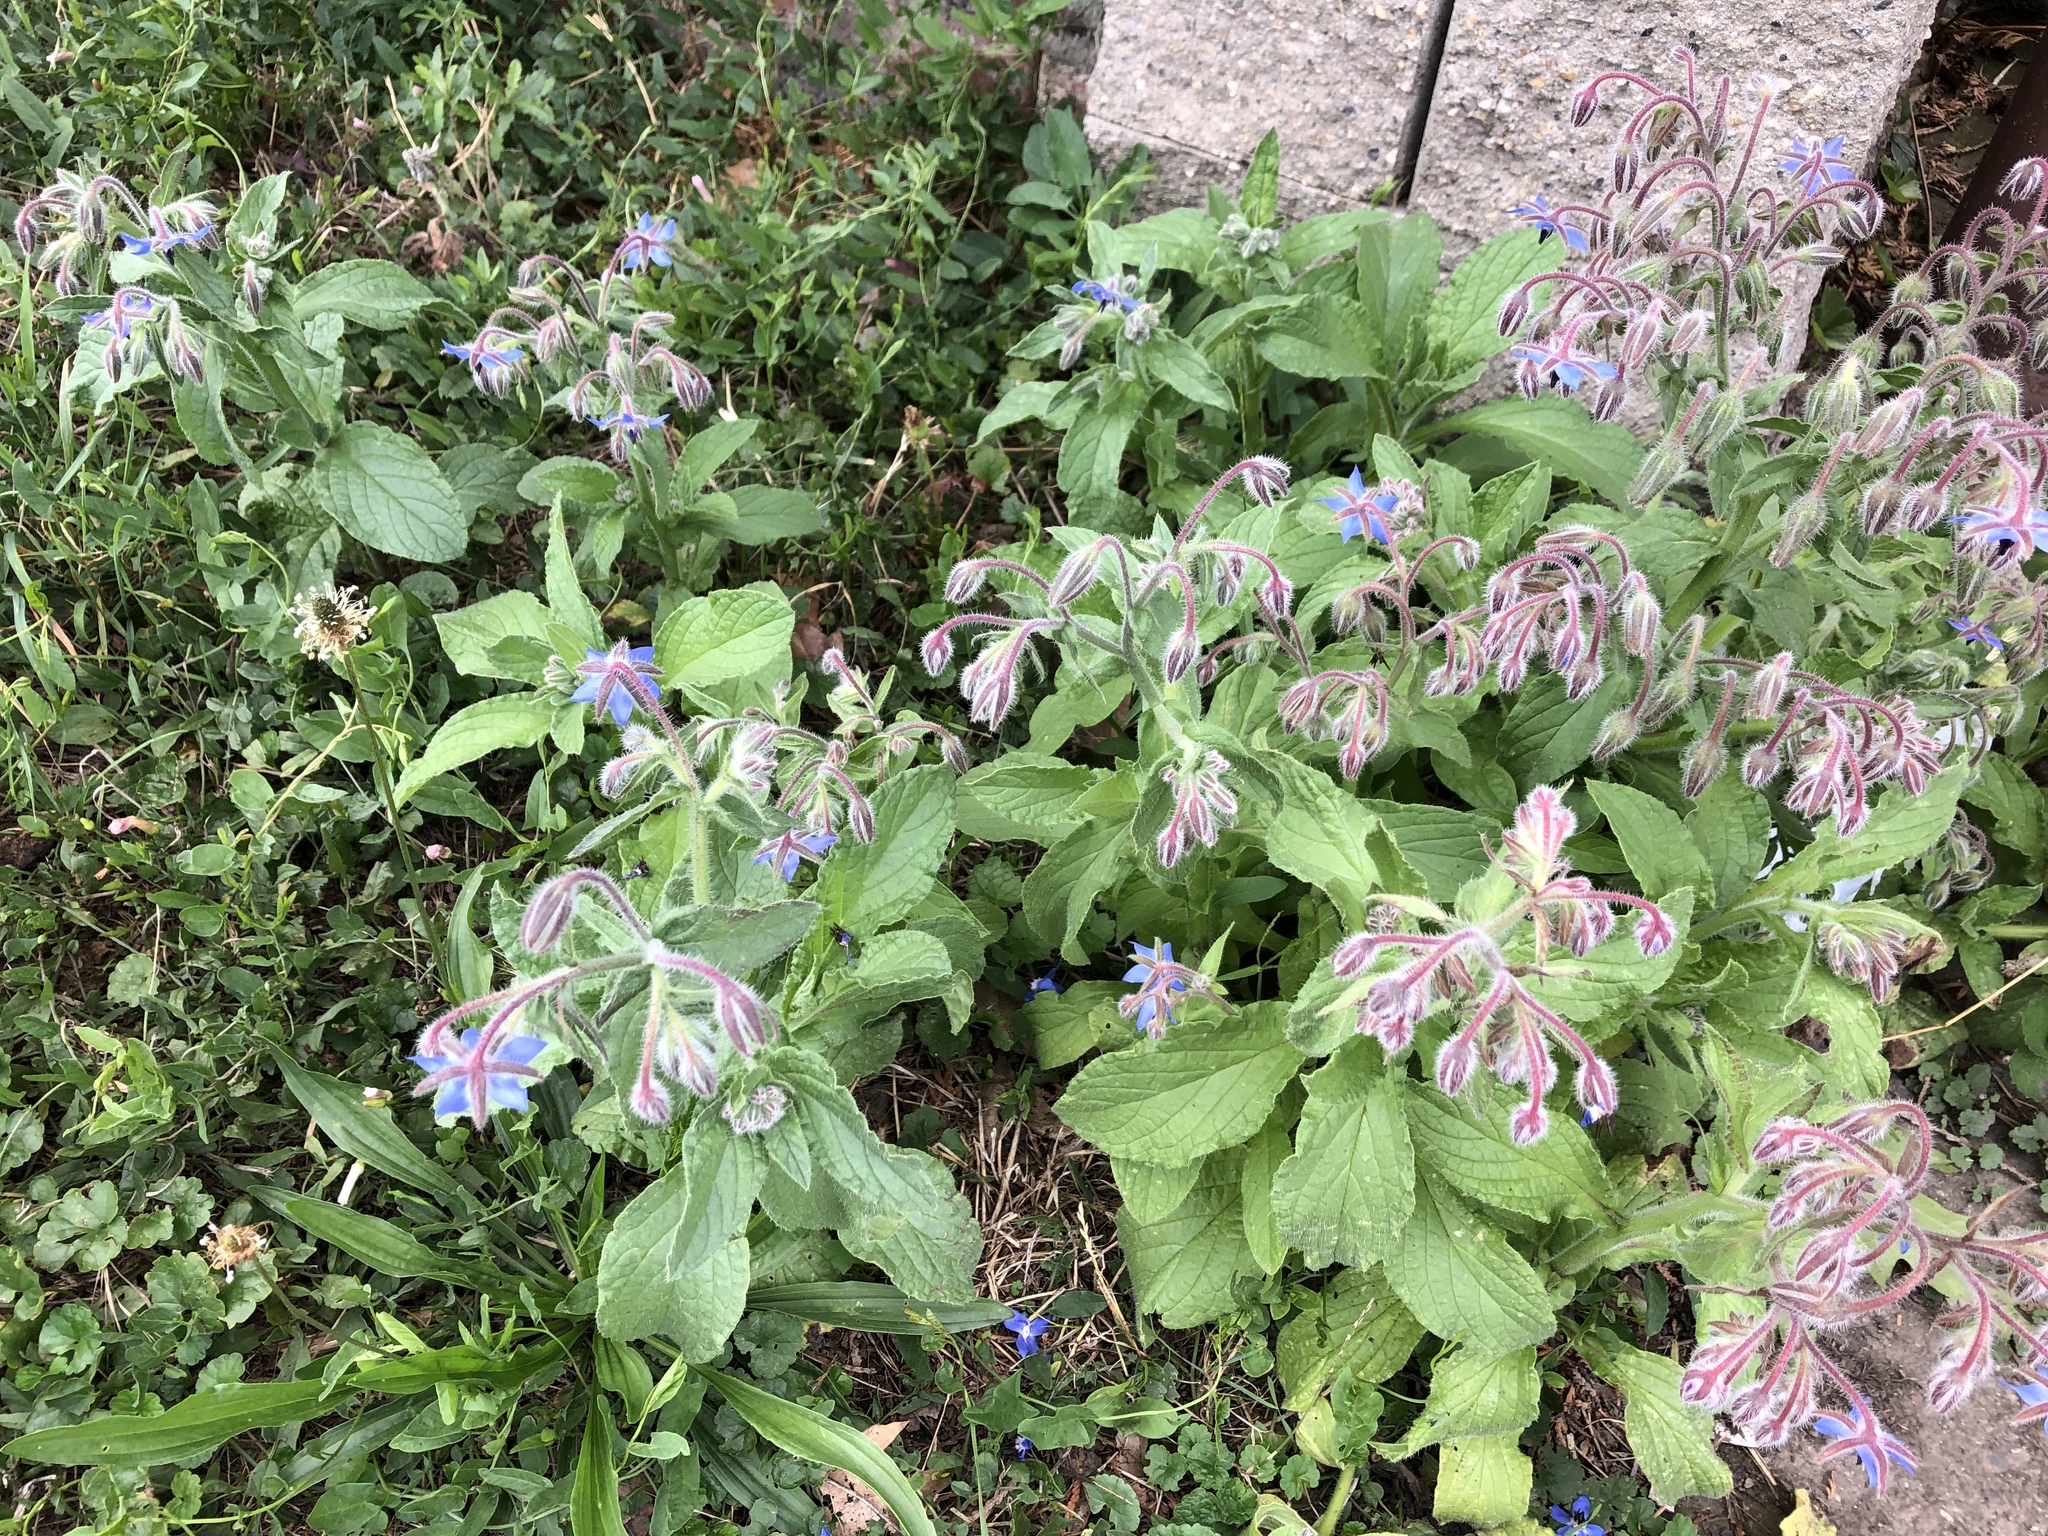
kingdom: Plantae
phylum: Tracheophyta
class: Magnoliopsida
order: Boraginales
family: Boraginaceae
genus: Borago
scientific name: Borago officinalis
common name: Borage
